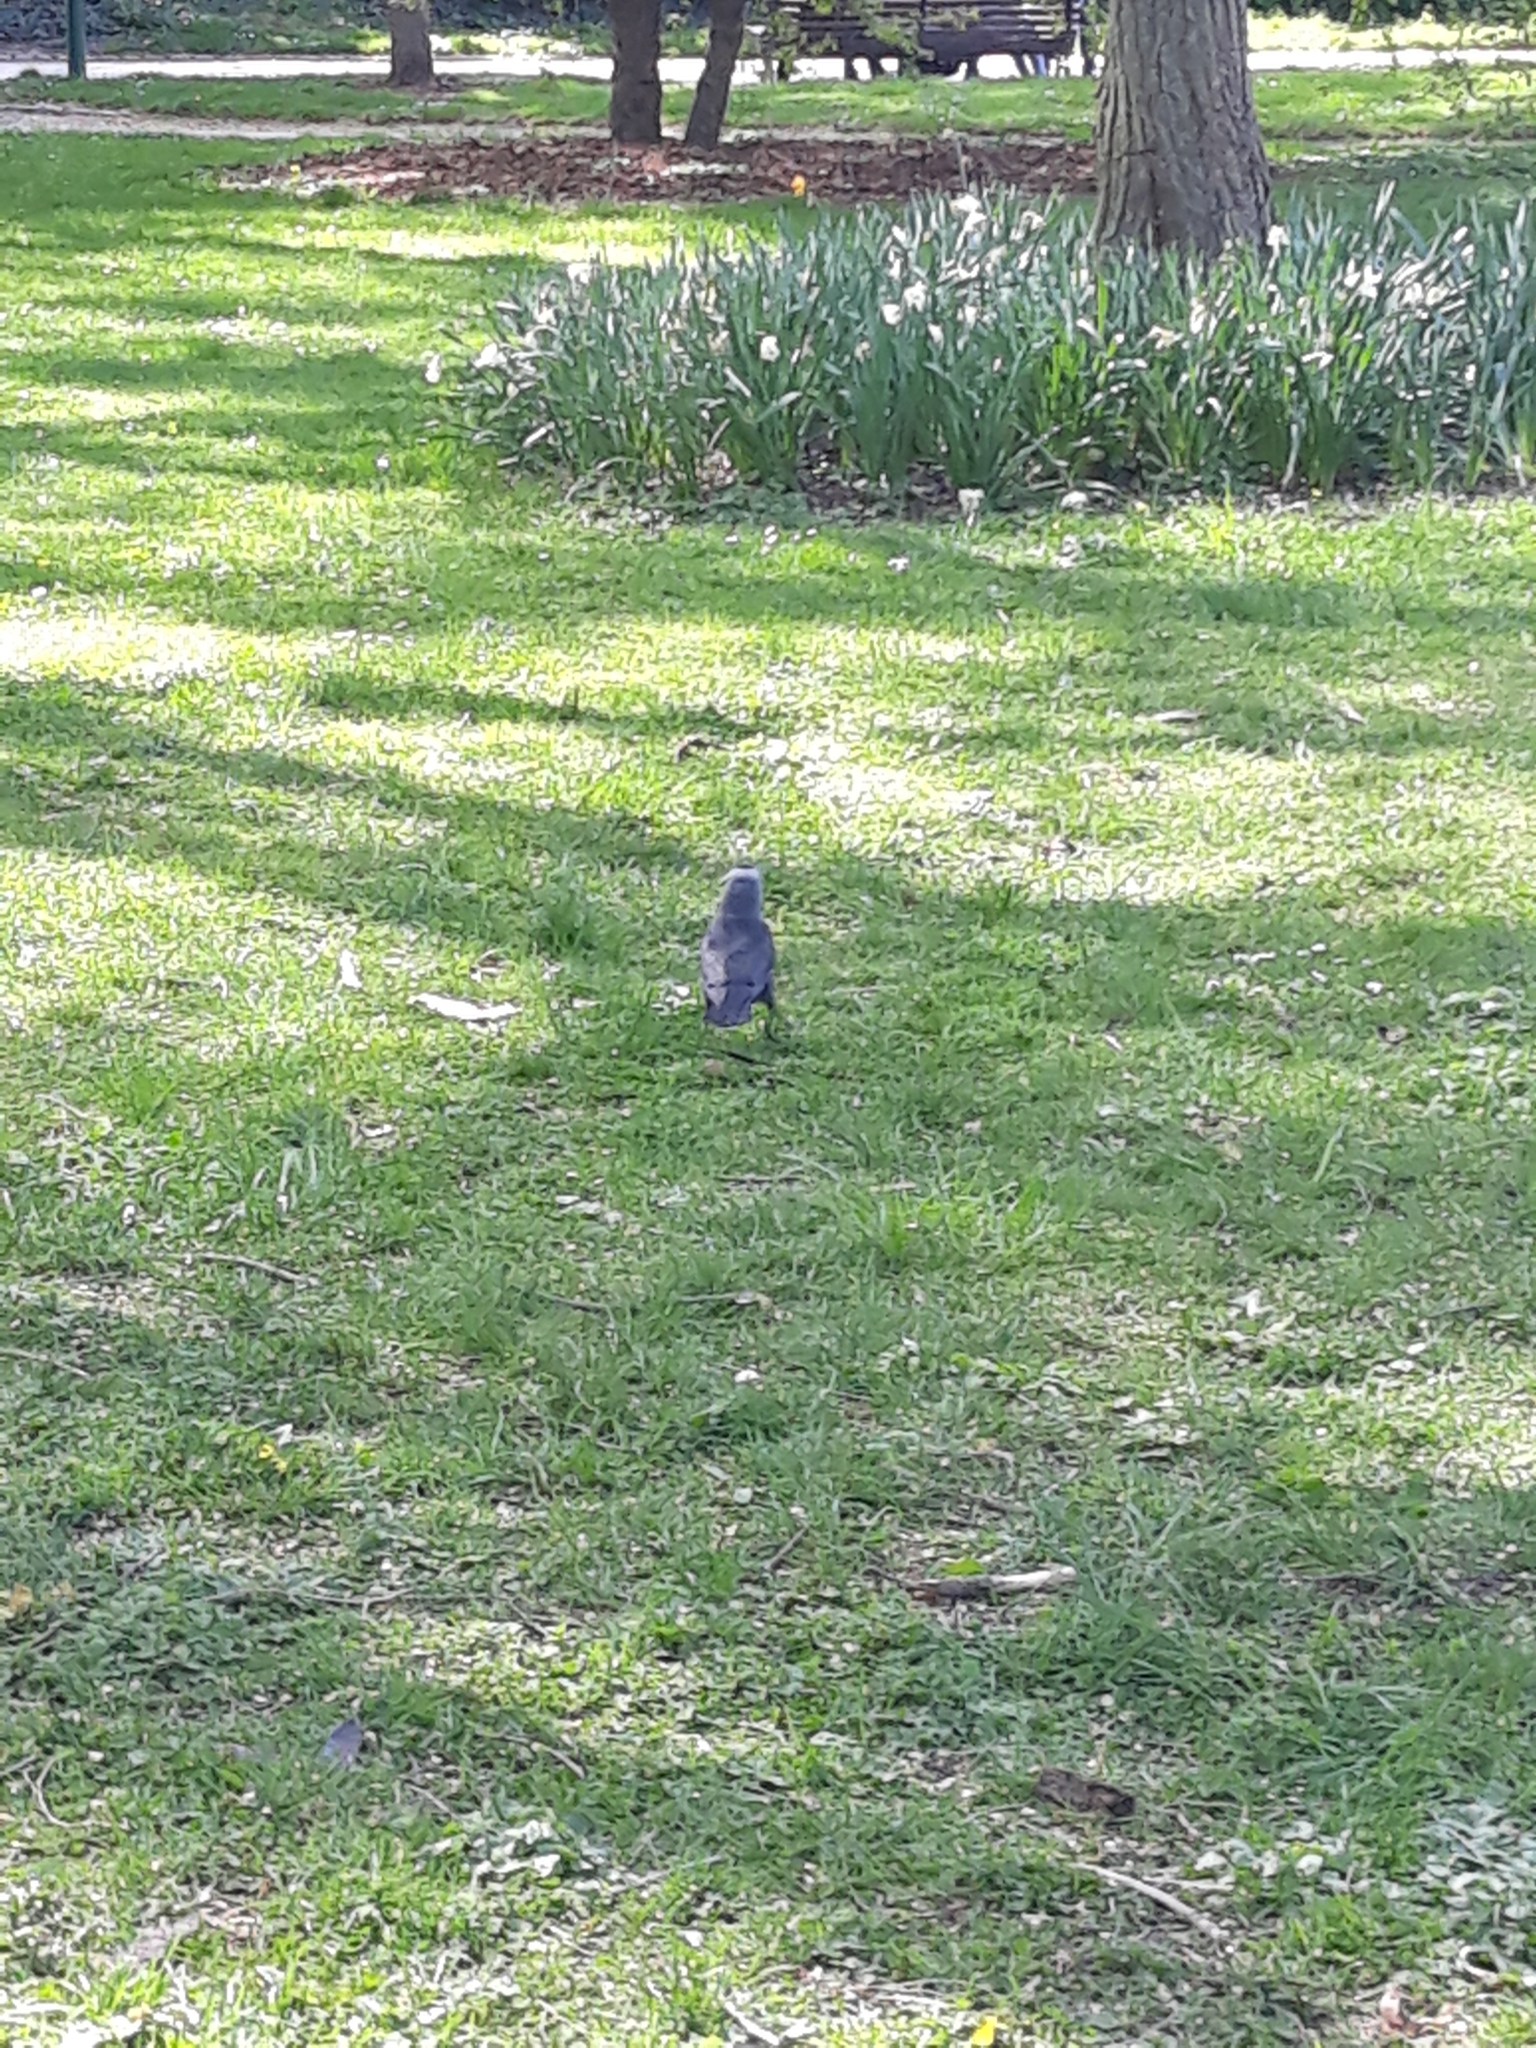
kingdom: Animalia
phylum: Chordata
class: Aves
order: Passeriformes
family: Corvidae
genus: Coloeus
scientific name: Coloeus monedula
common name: Western jackdaw
